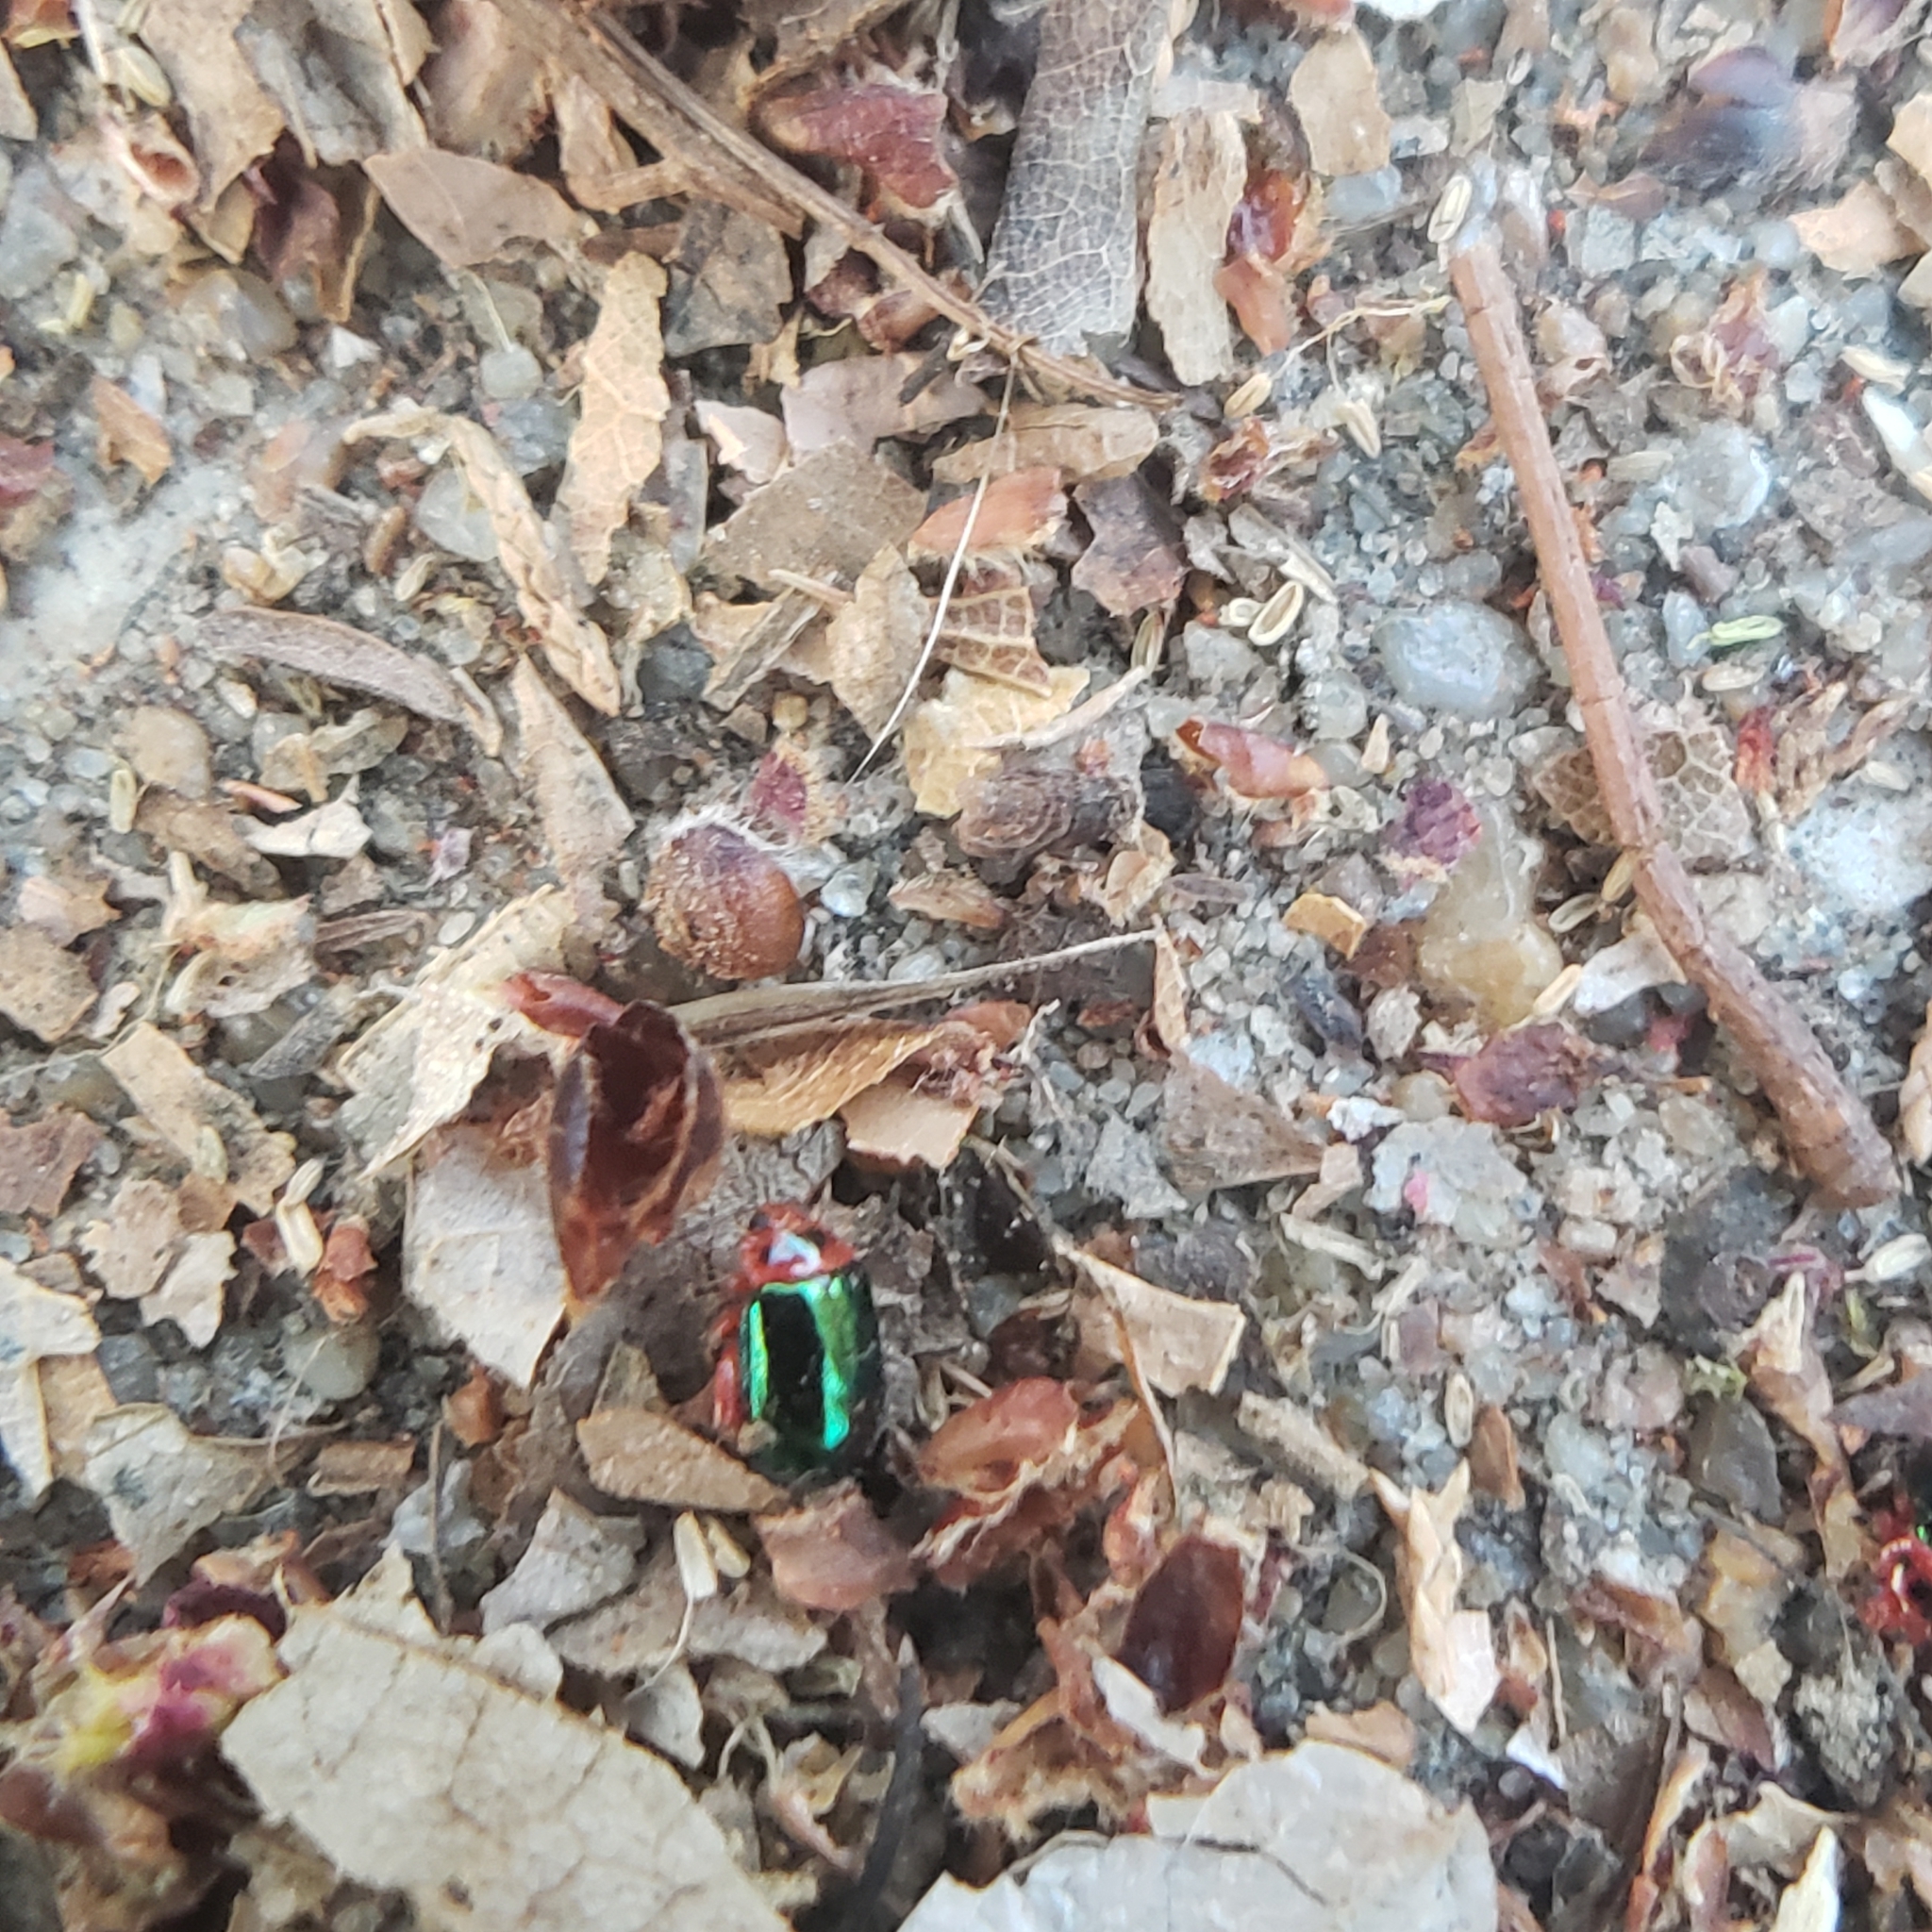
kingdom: Animalia
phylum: Arthropoda
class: Insecta
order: Coleoptera
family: Chrysomelidae
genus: Kuschelina
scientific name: Kuschelina gibbitarsa
